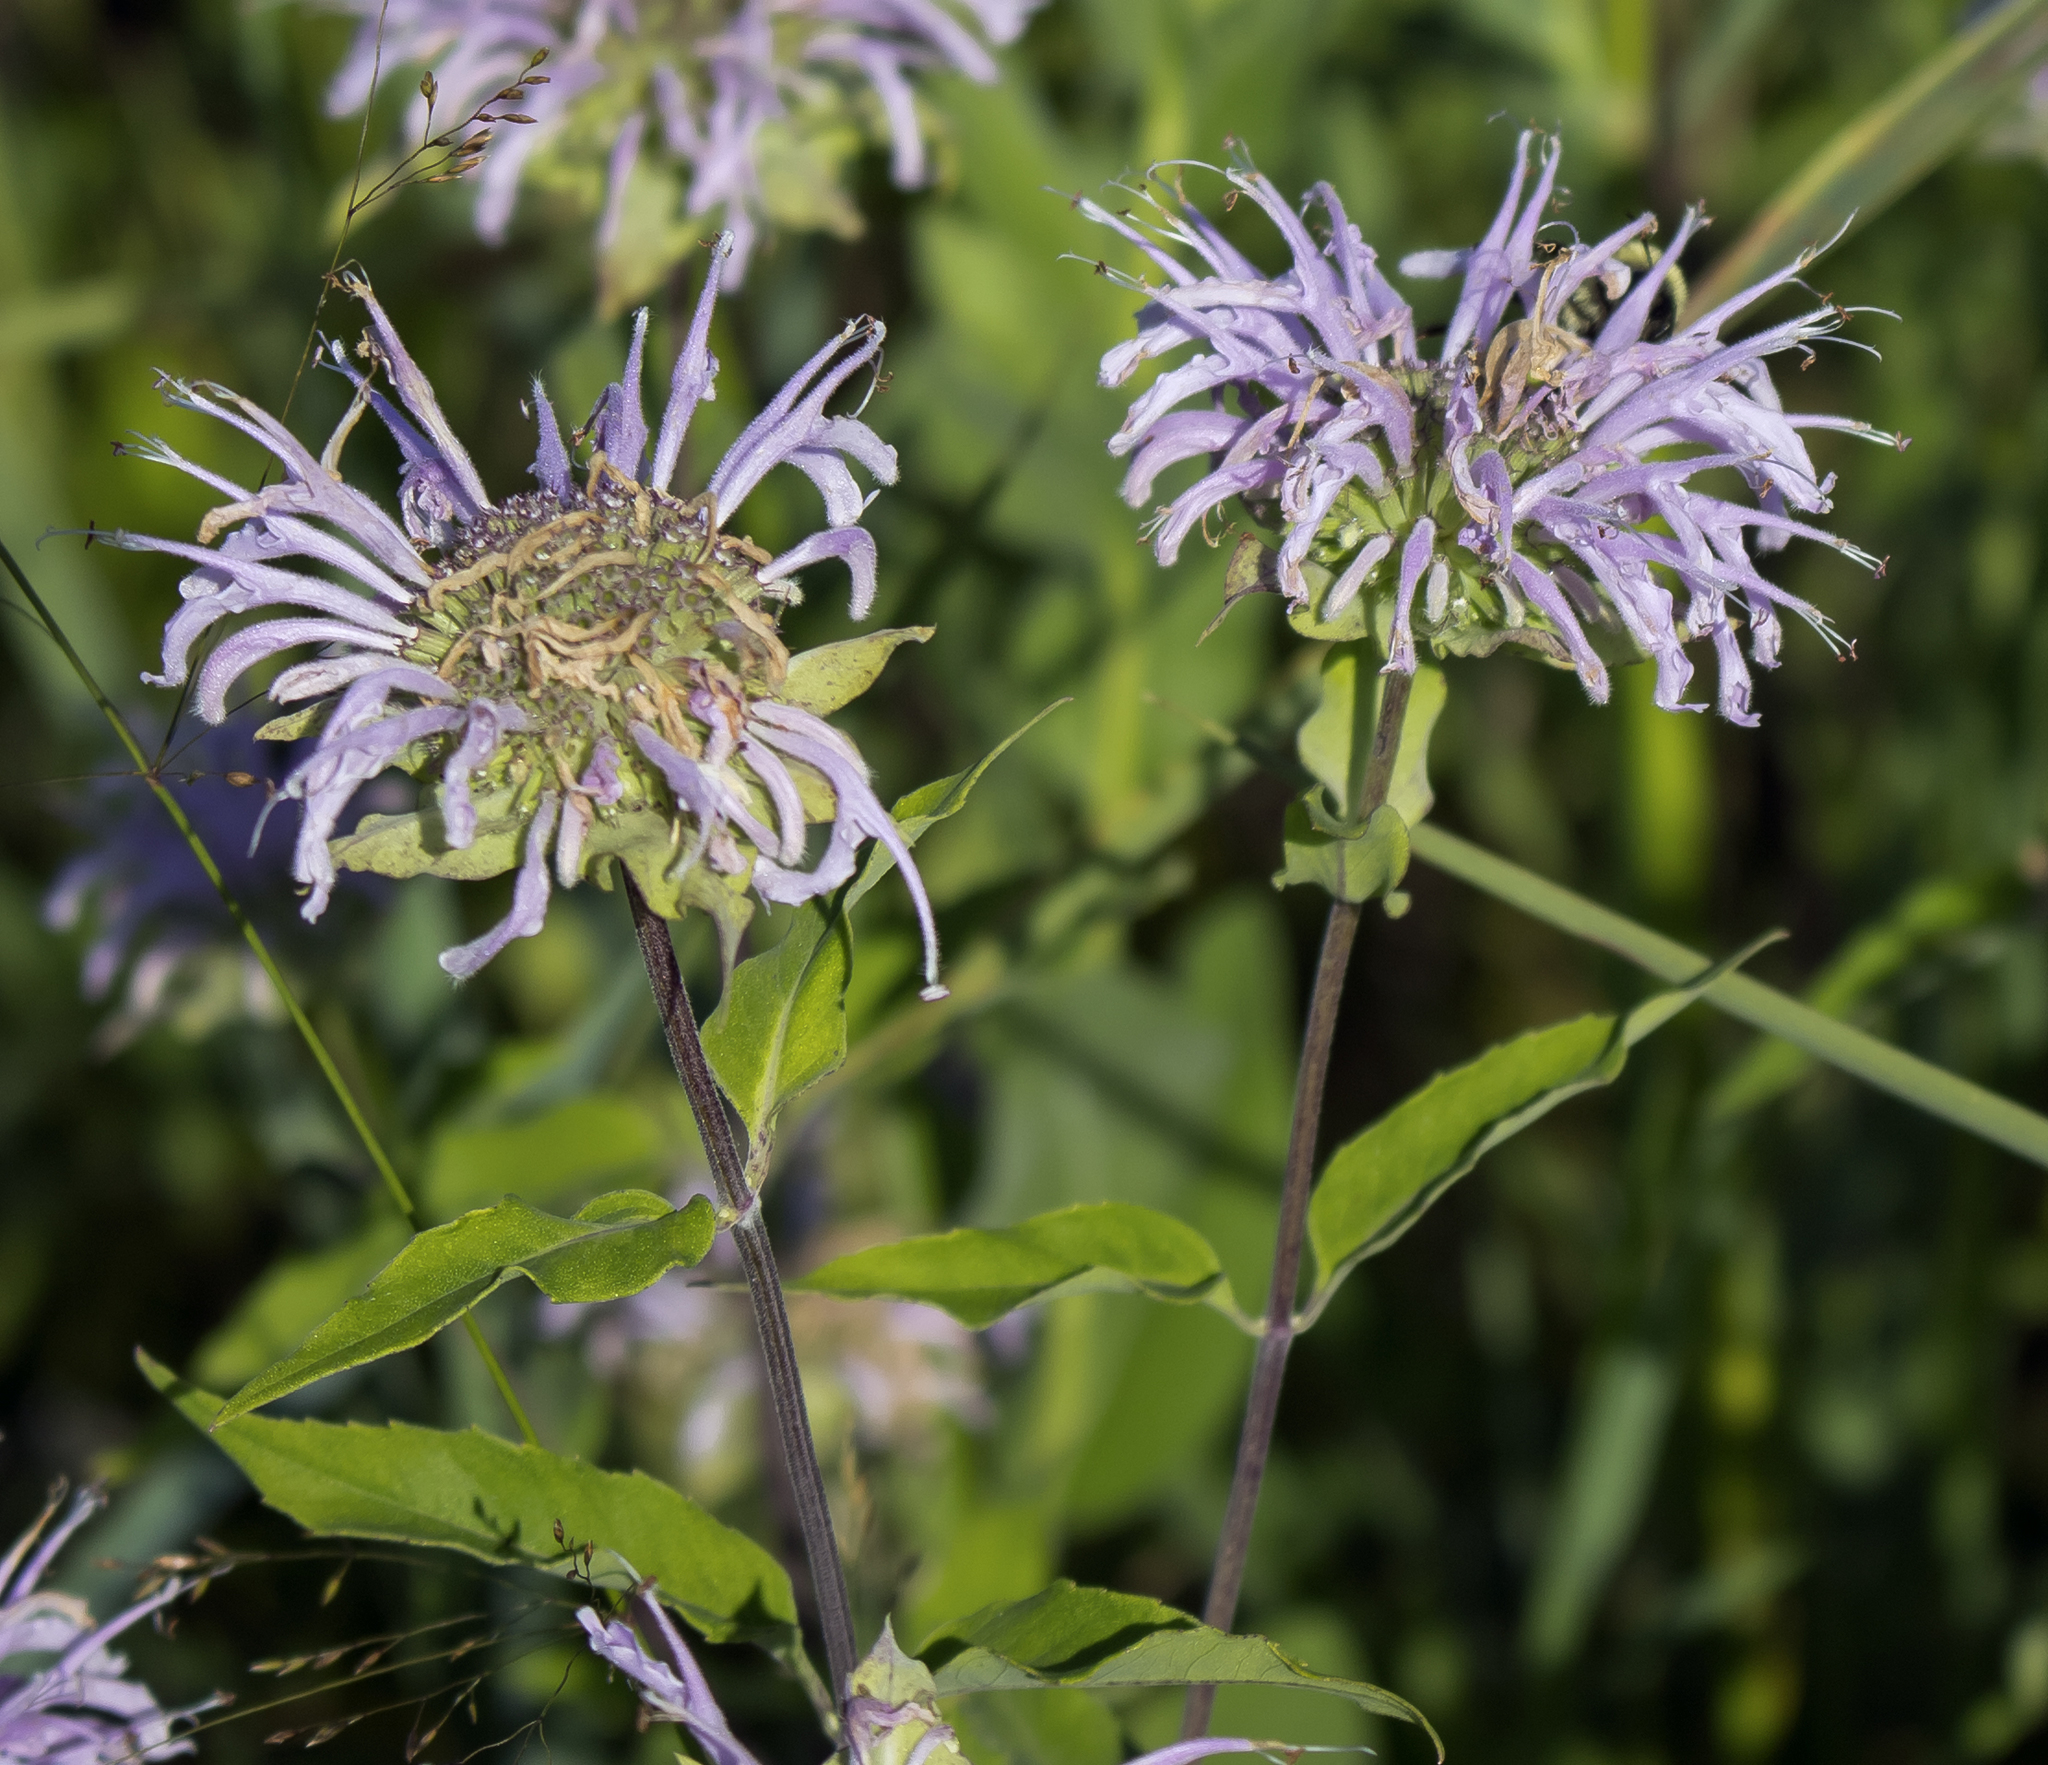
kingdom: Plantae
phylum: Tracheophyta
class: Magnoliopsida
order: Lamiales
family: Lamiaceae
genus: Monarda
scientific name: Monarda fistulosa
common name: Purple beebalm
